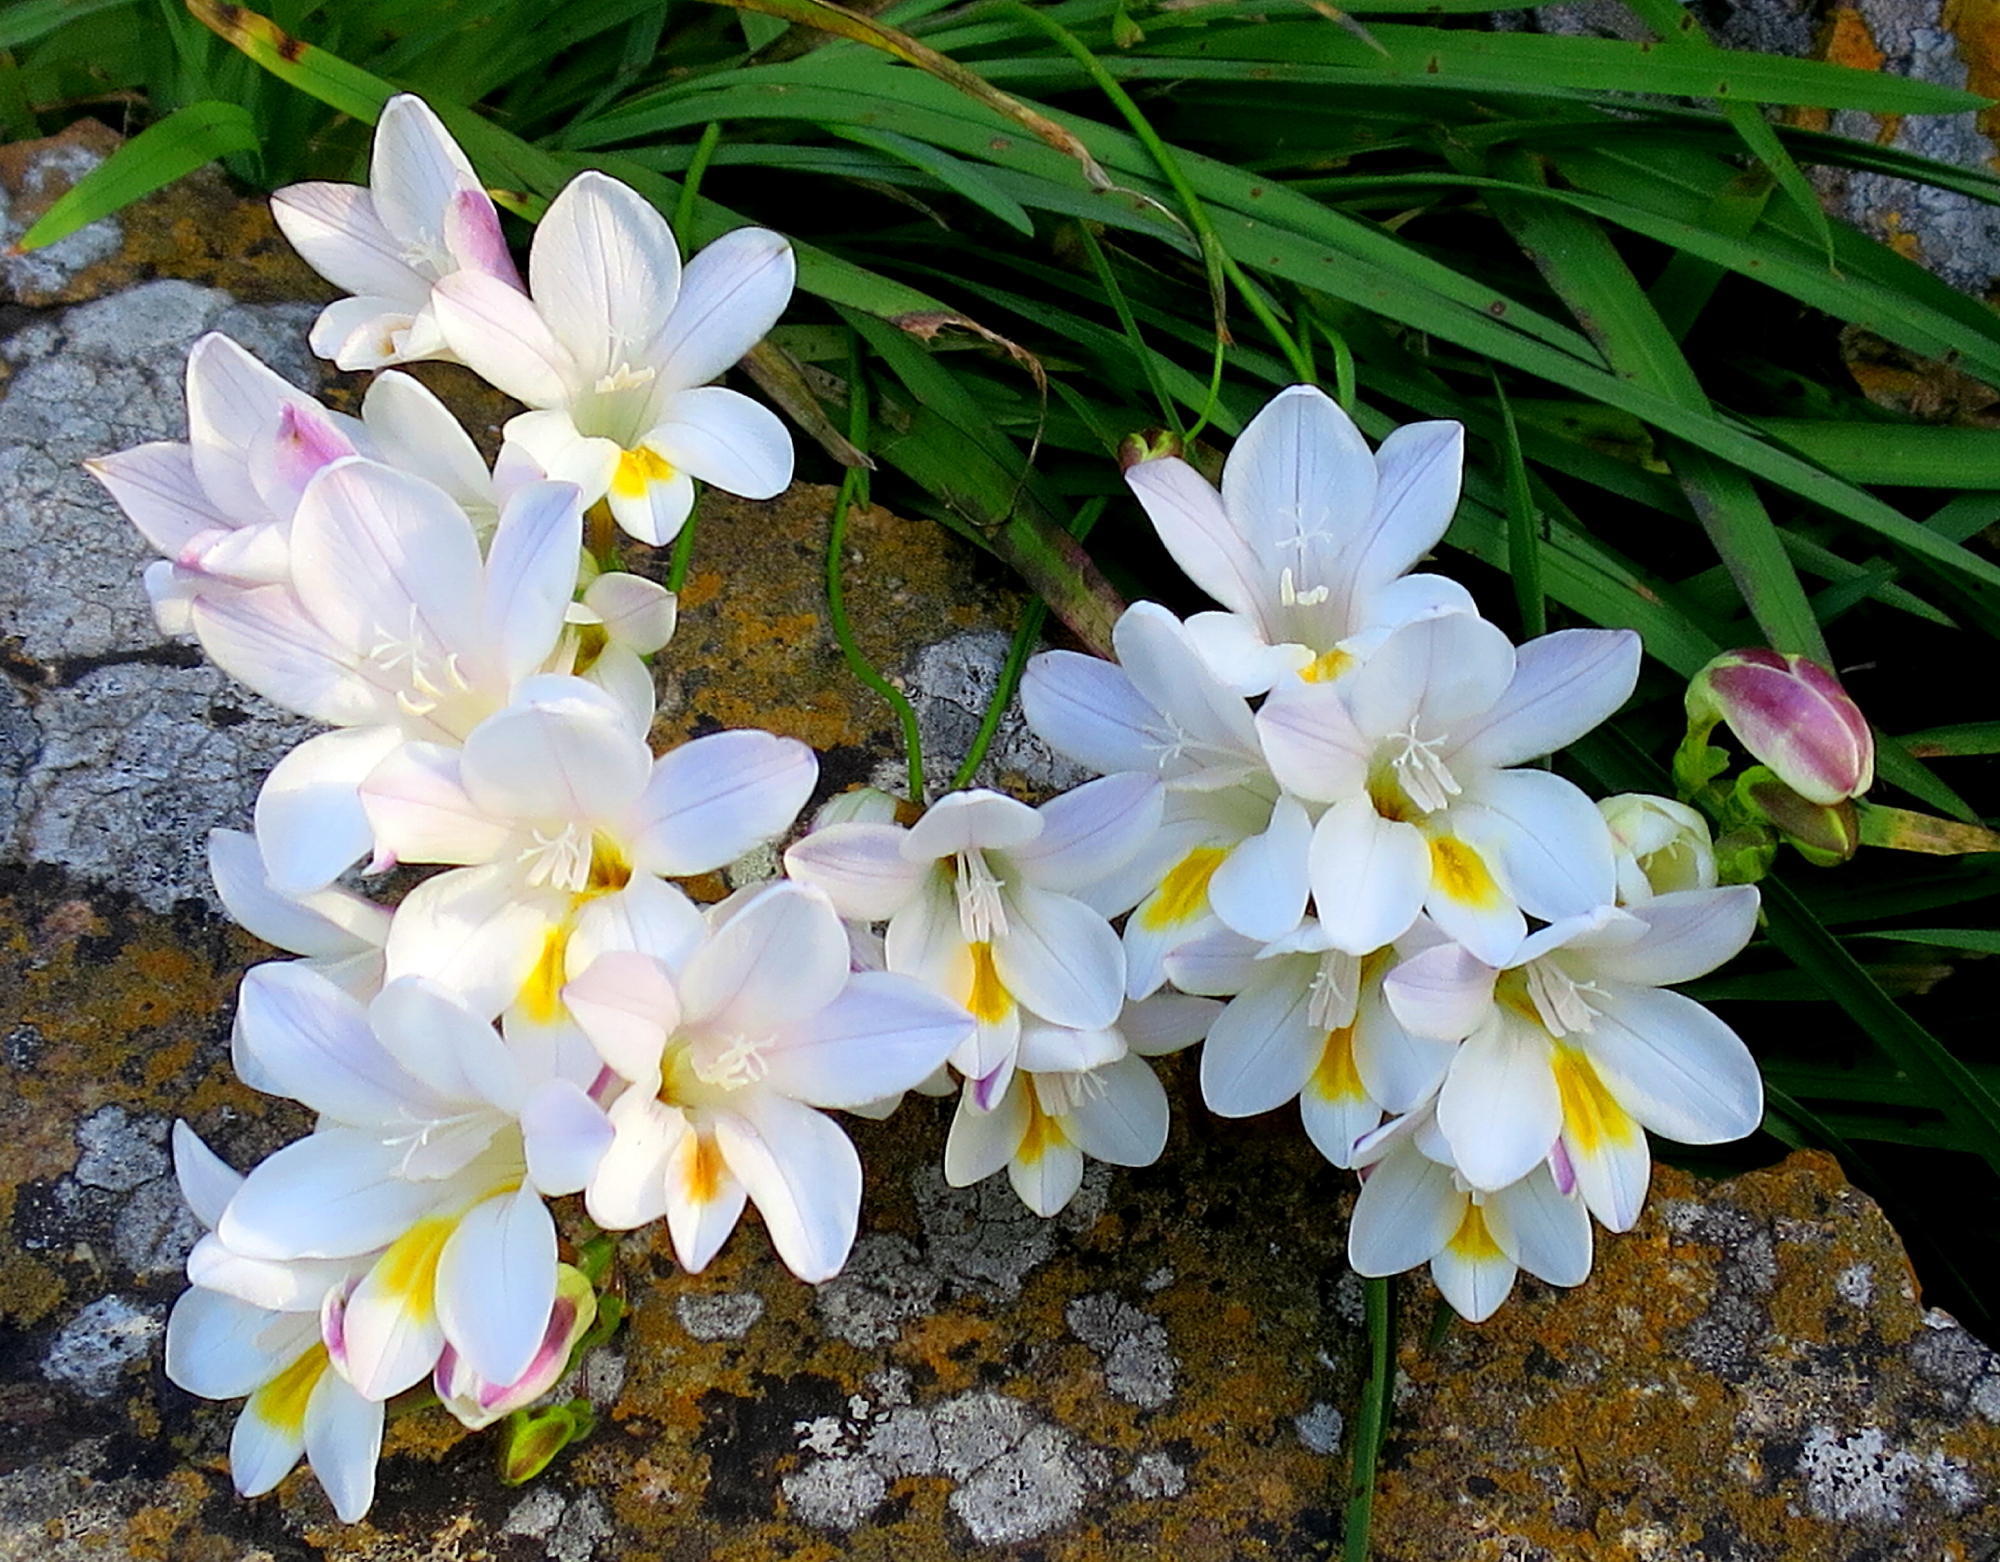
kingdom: Plantae
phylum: Tracheophyta
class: Liliopsida
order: Asparagales
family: Iridaceae
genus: Freesia
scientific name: Freesia leichtlinii
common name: Freesia
